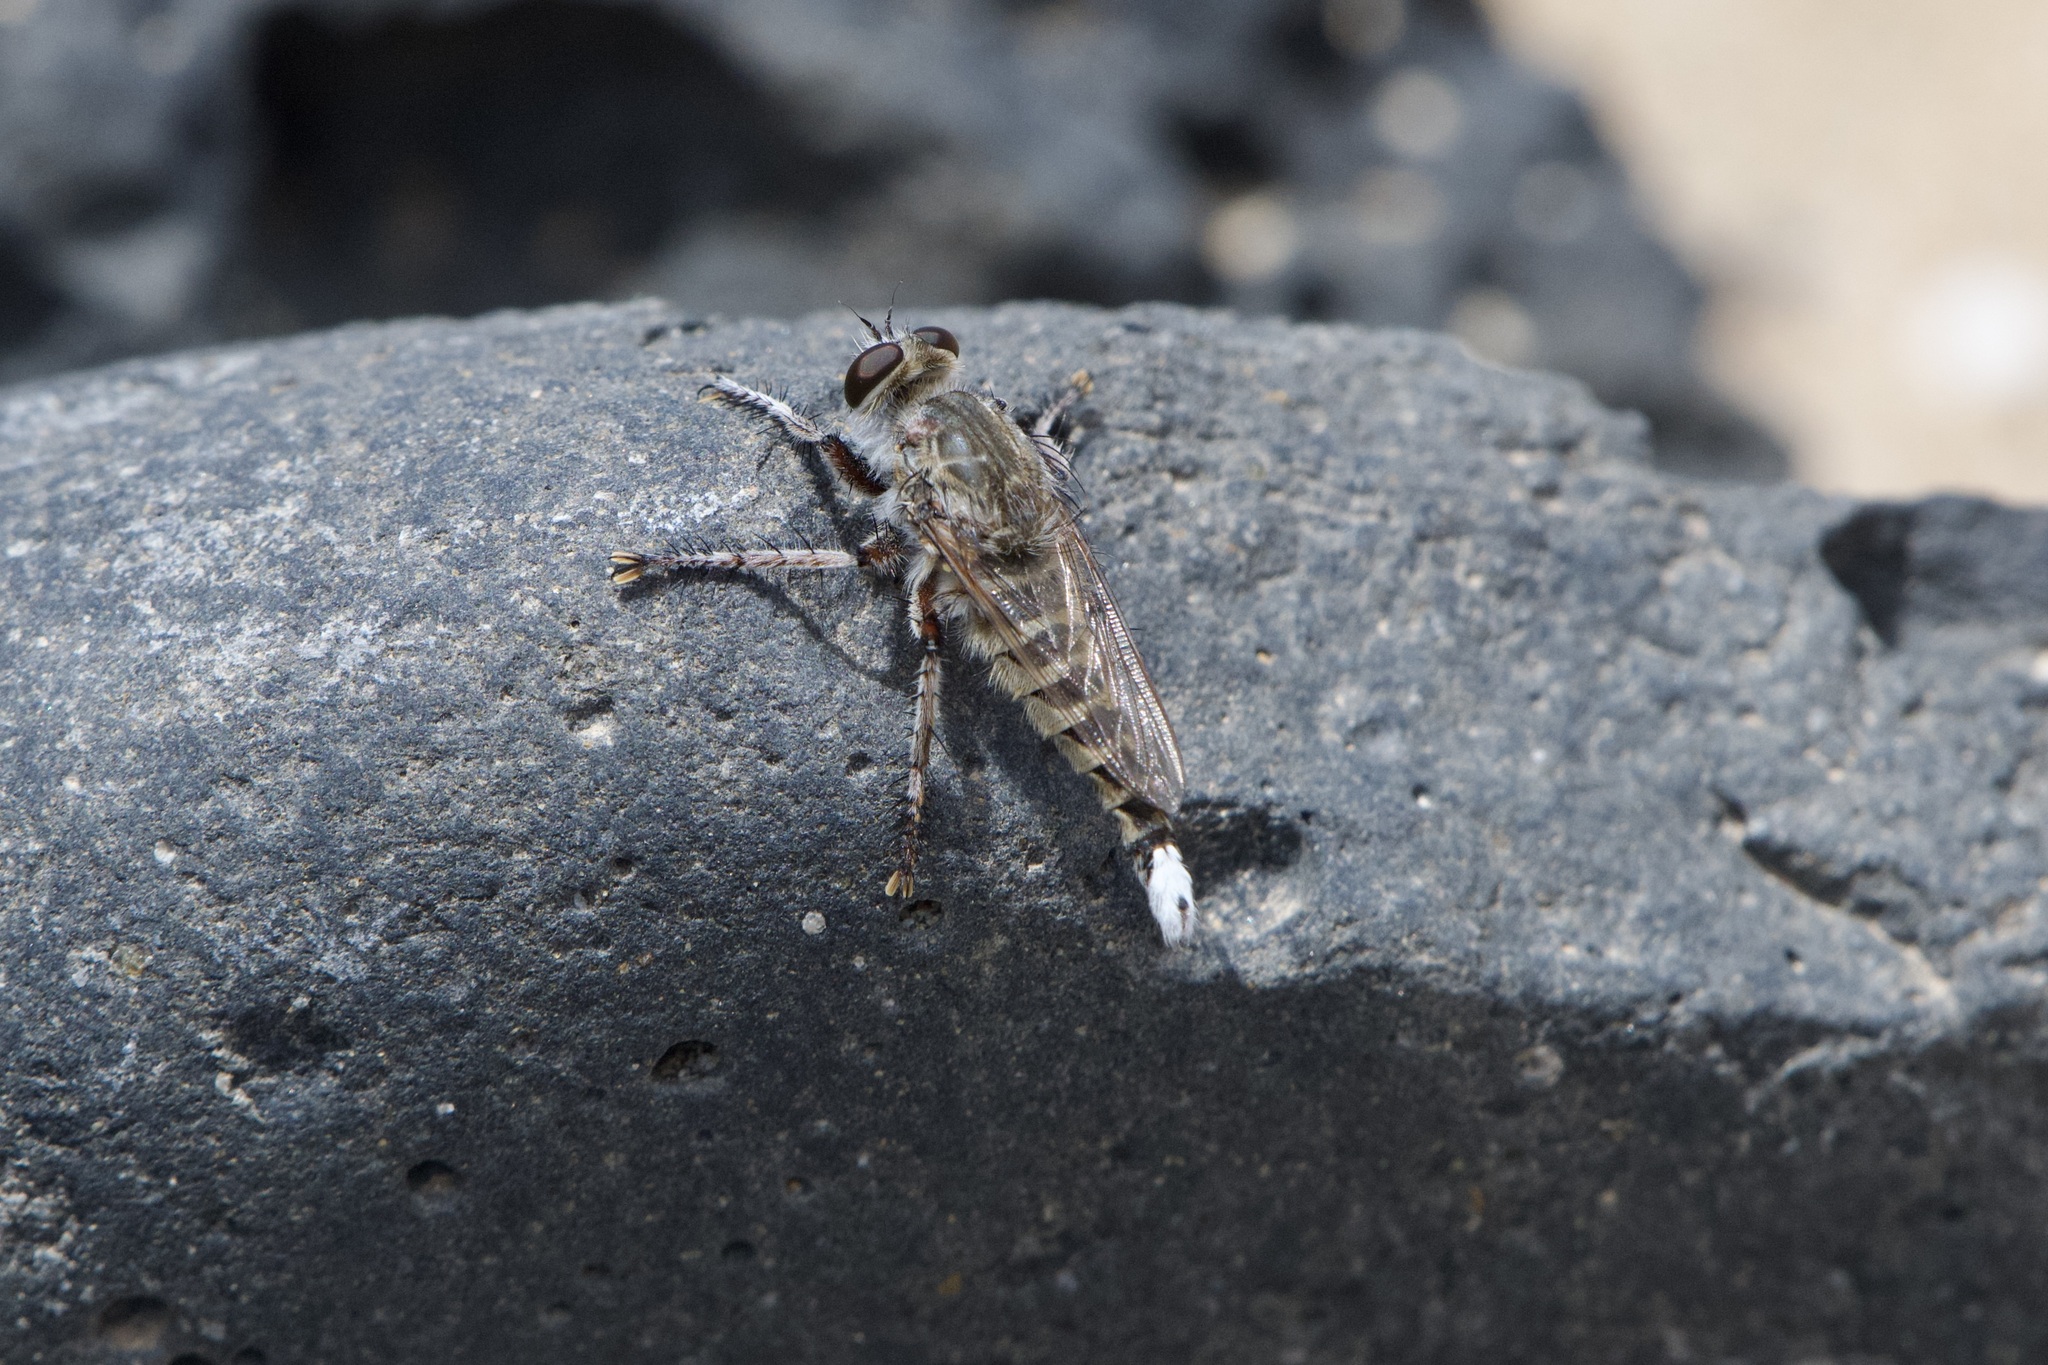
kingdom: Animalia
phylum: Arthropoda
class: Insecta
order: Diptera
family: Asilidae
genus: Promachus
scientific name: Promachus consanguineus
